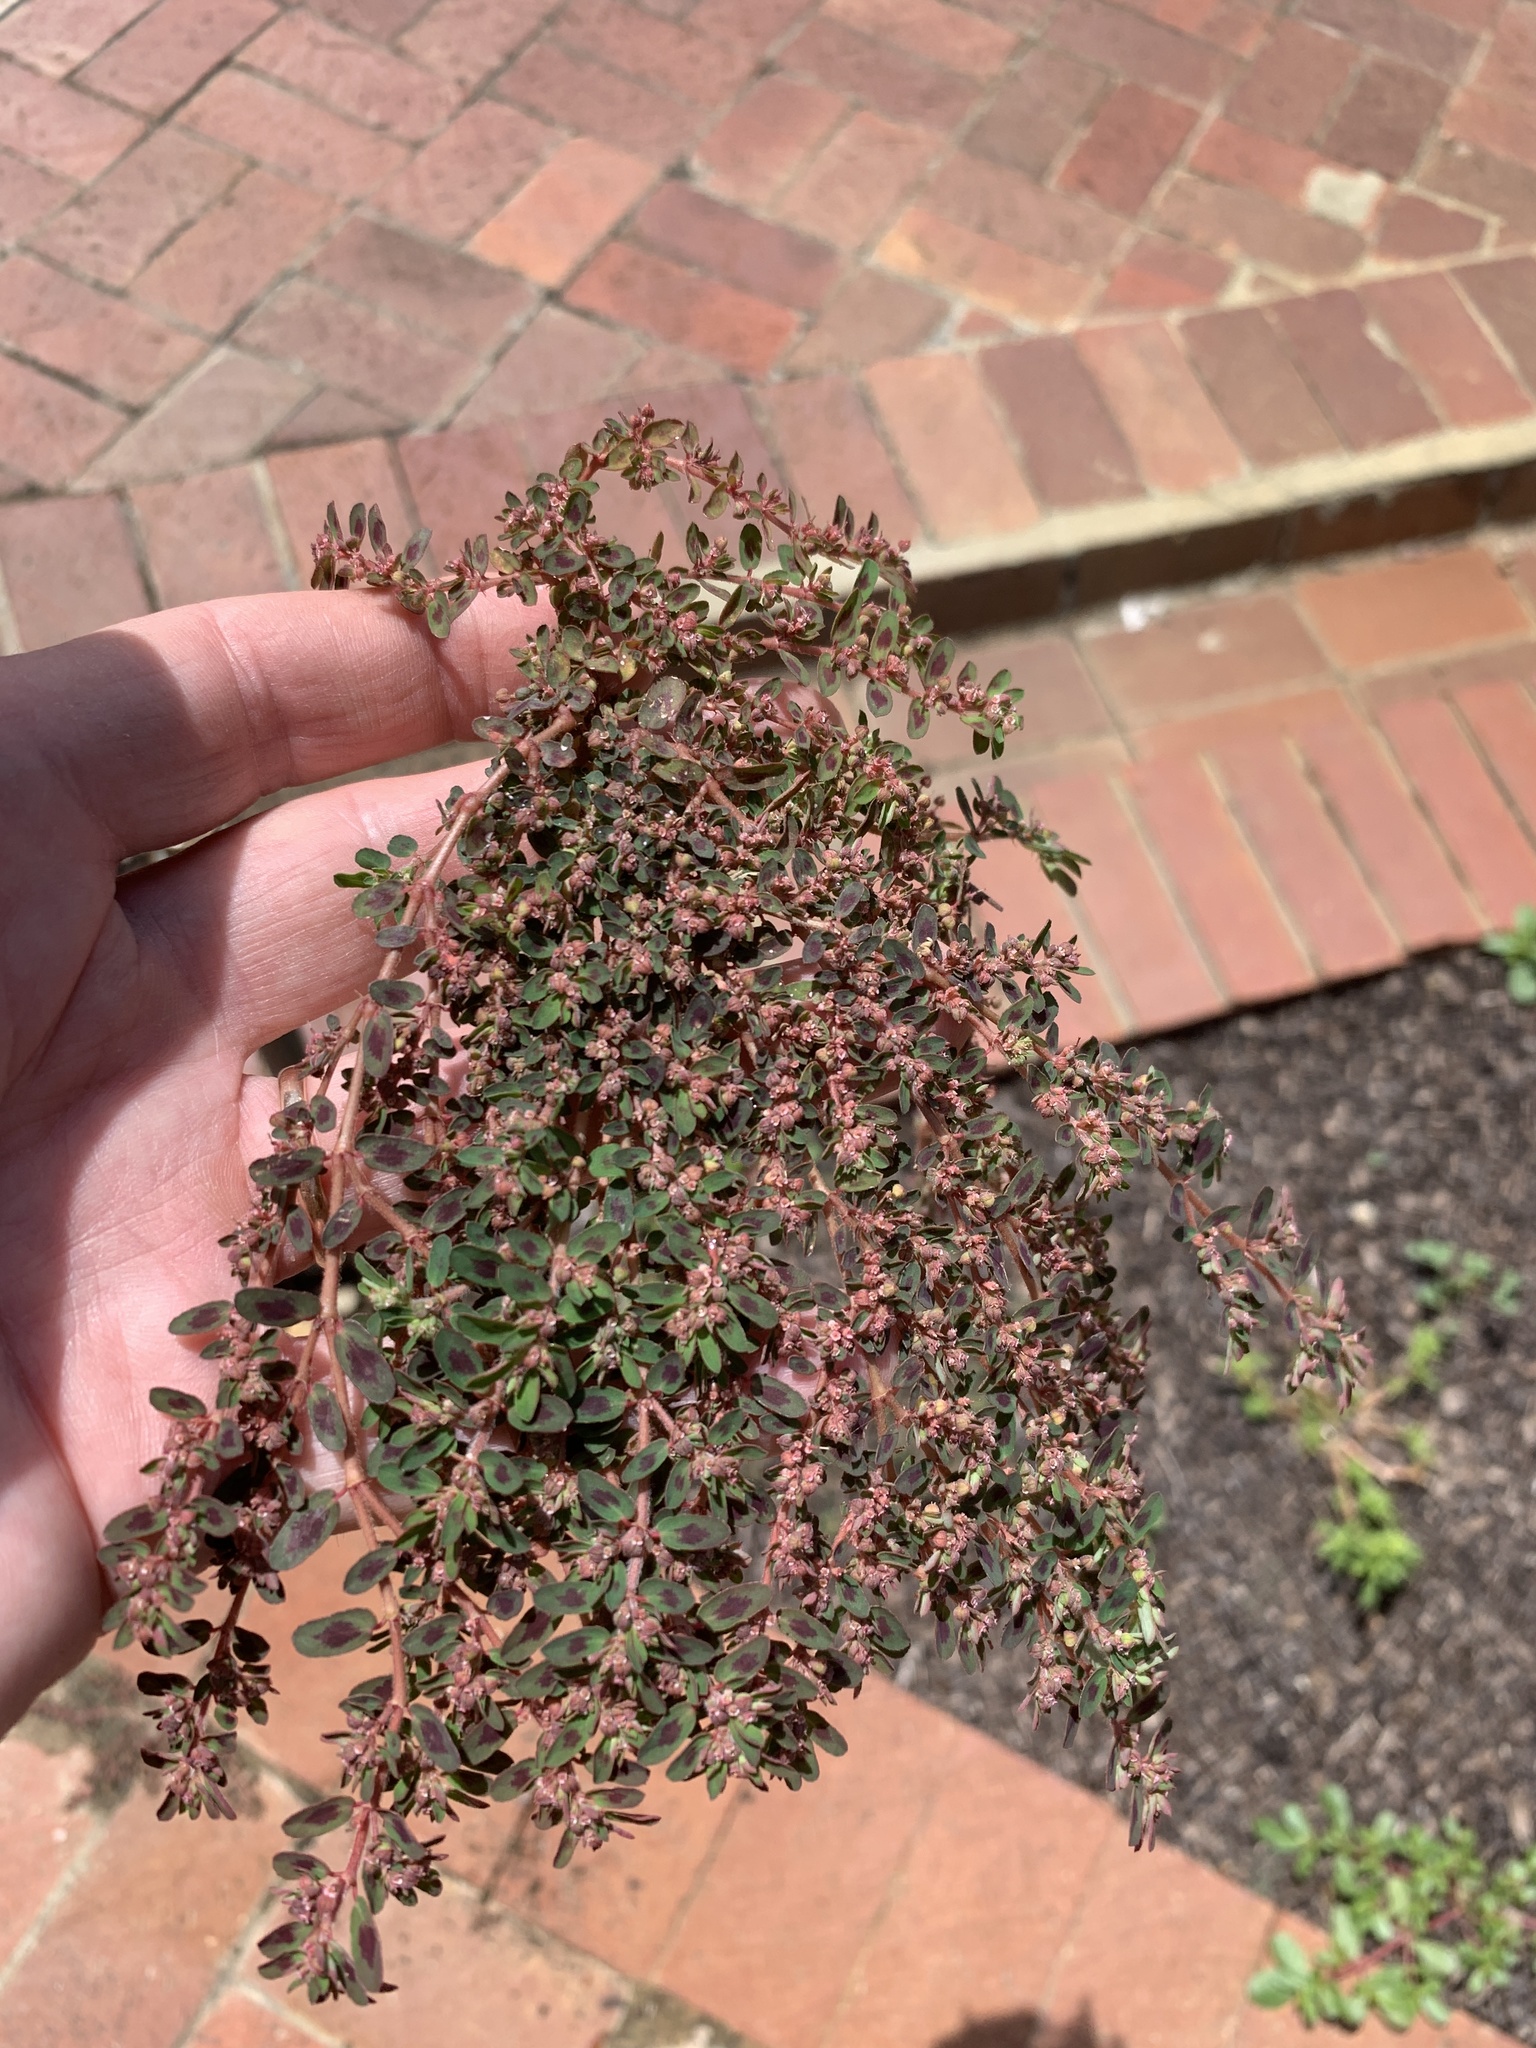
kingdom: Plantae
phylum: Tracheophyta
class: Magnoliopsida
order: Malpighiales
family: Euphorbiaceae
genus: Euphorbia
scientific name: Euphorbia maculata
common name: Spotted spurge
